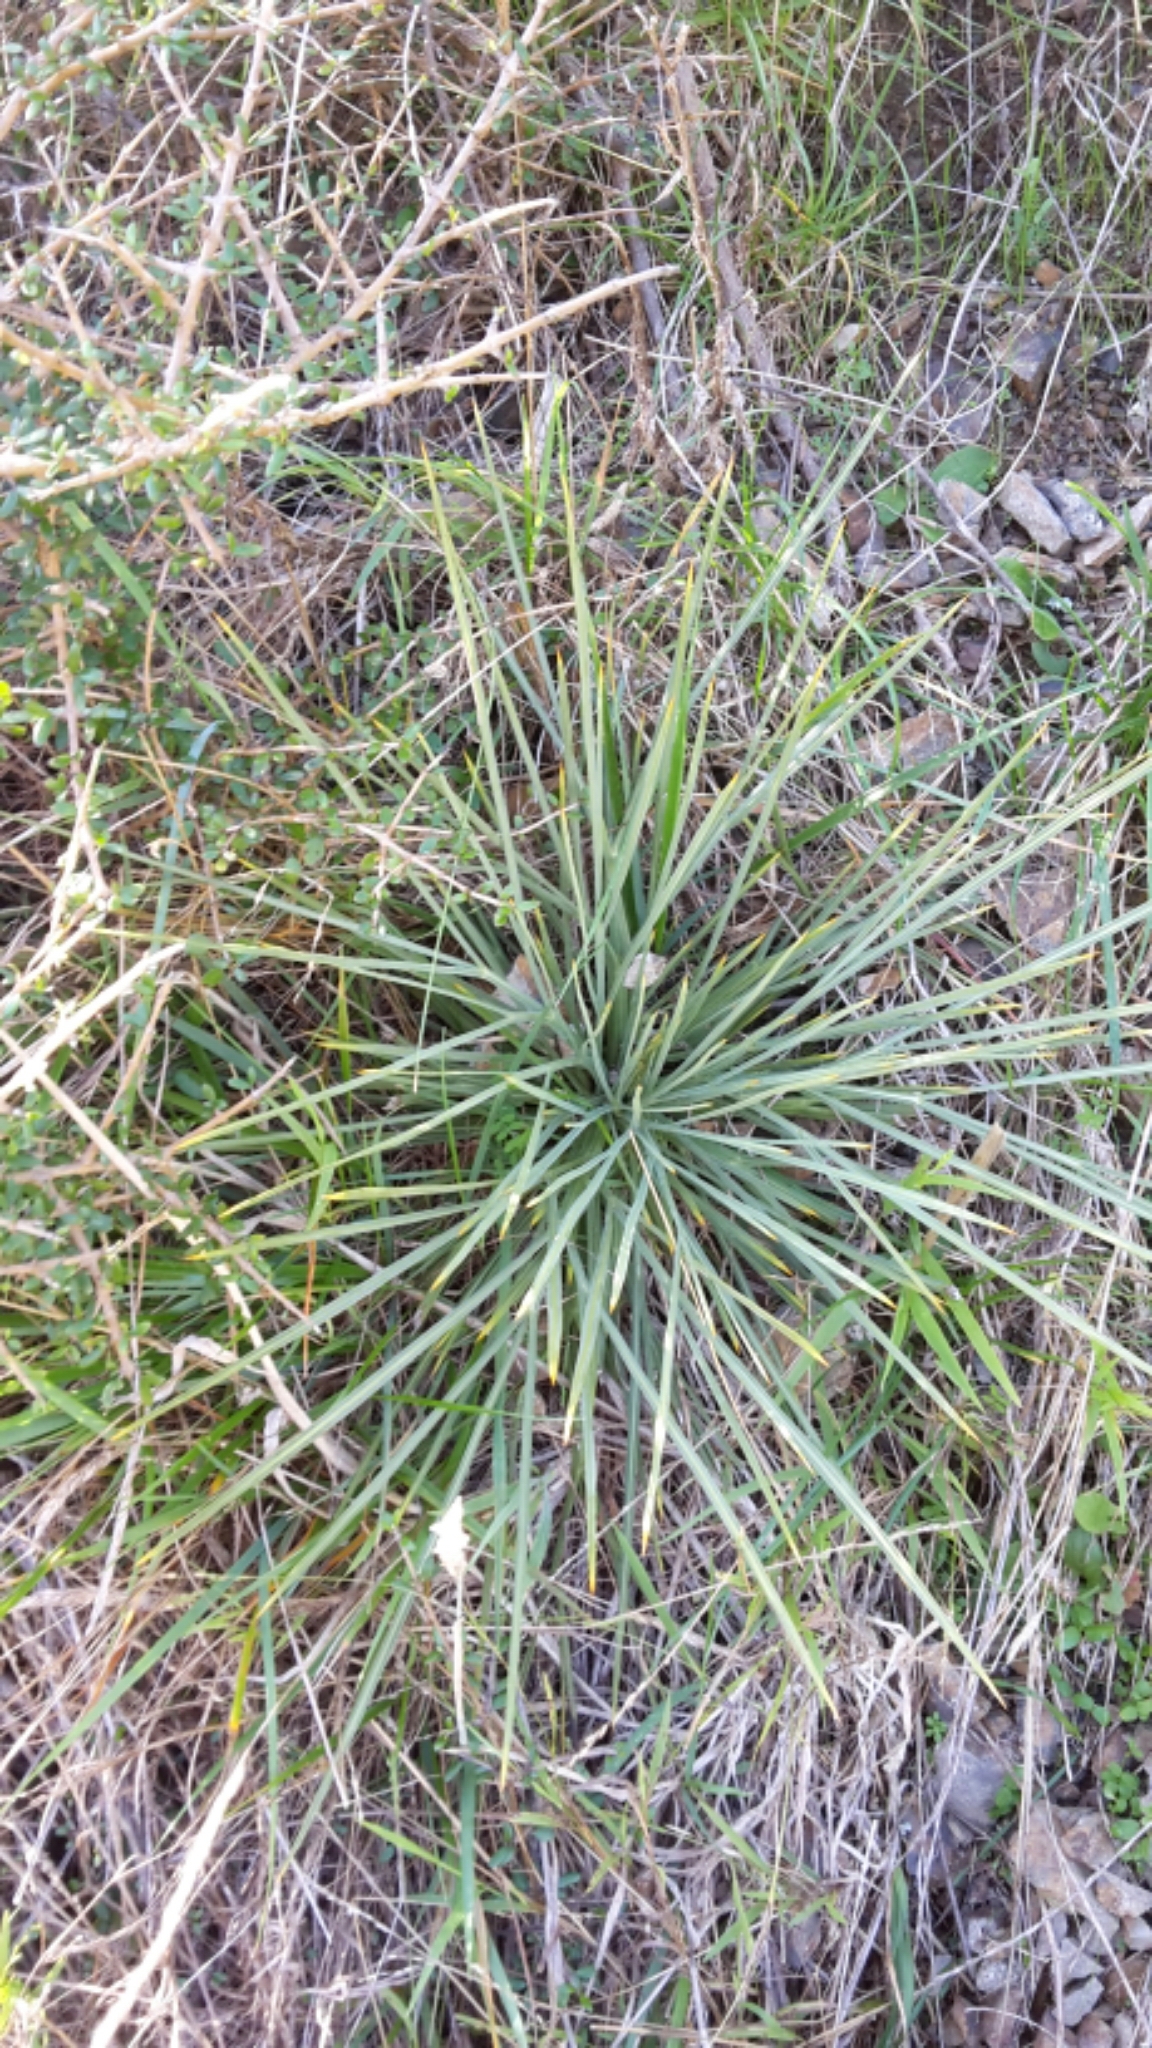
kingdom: Plantae
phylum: Tracheophyta
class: Magnoliopsida
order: Apiales
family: Apiaceae
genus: Aciphylla
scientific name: Aciphylla squarrosa
